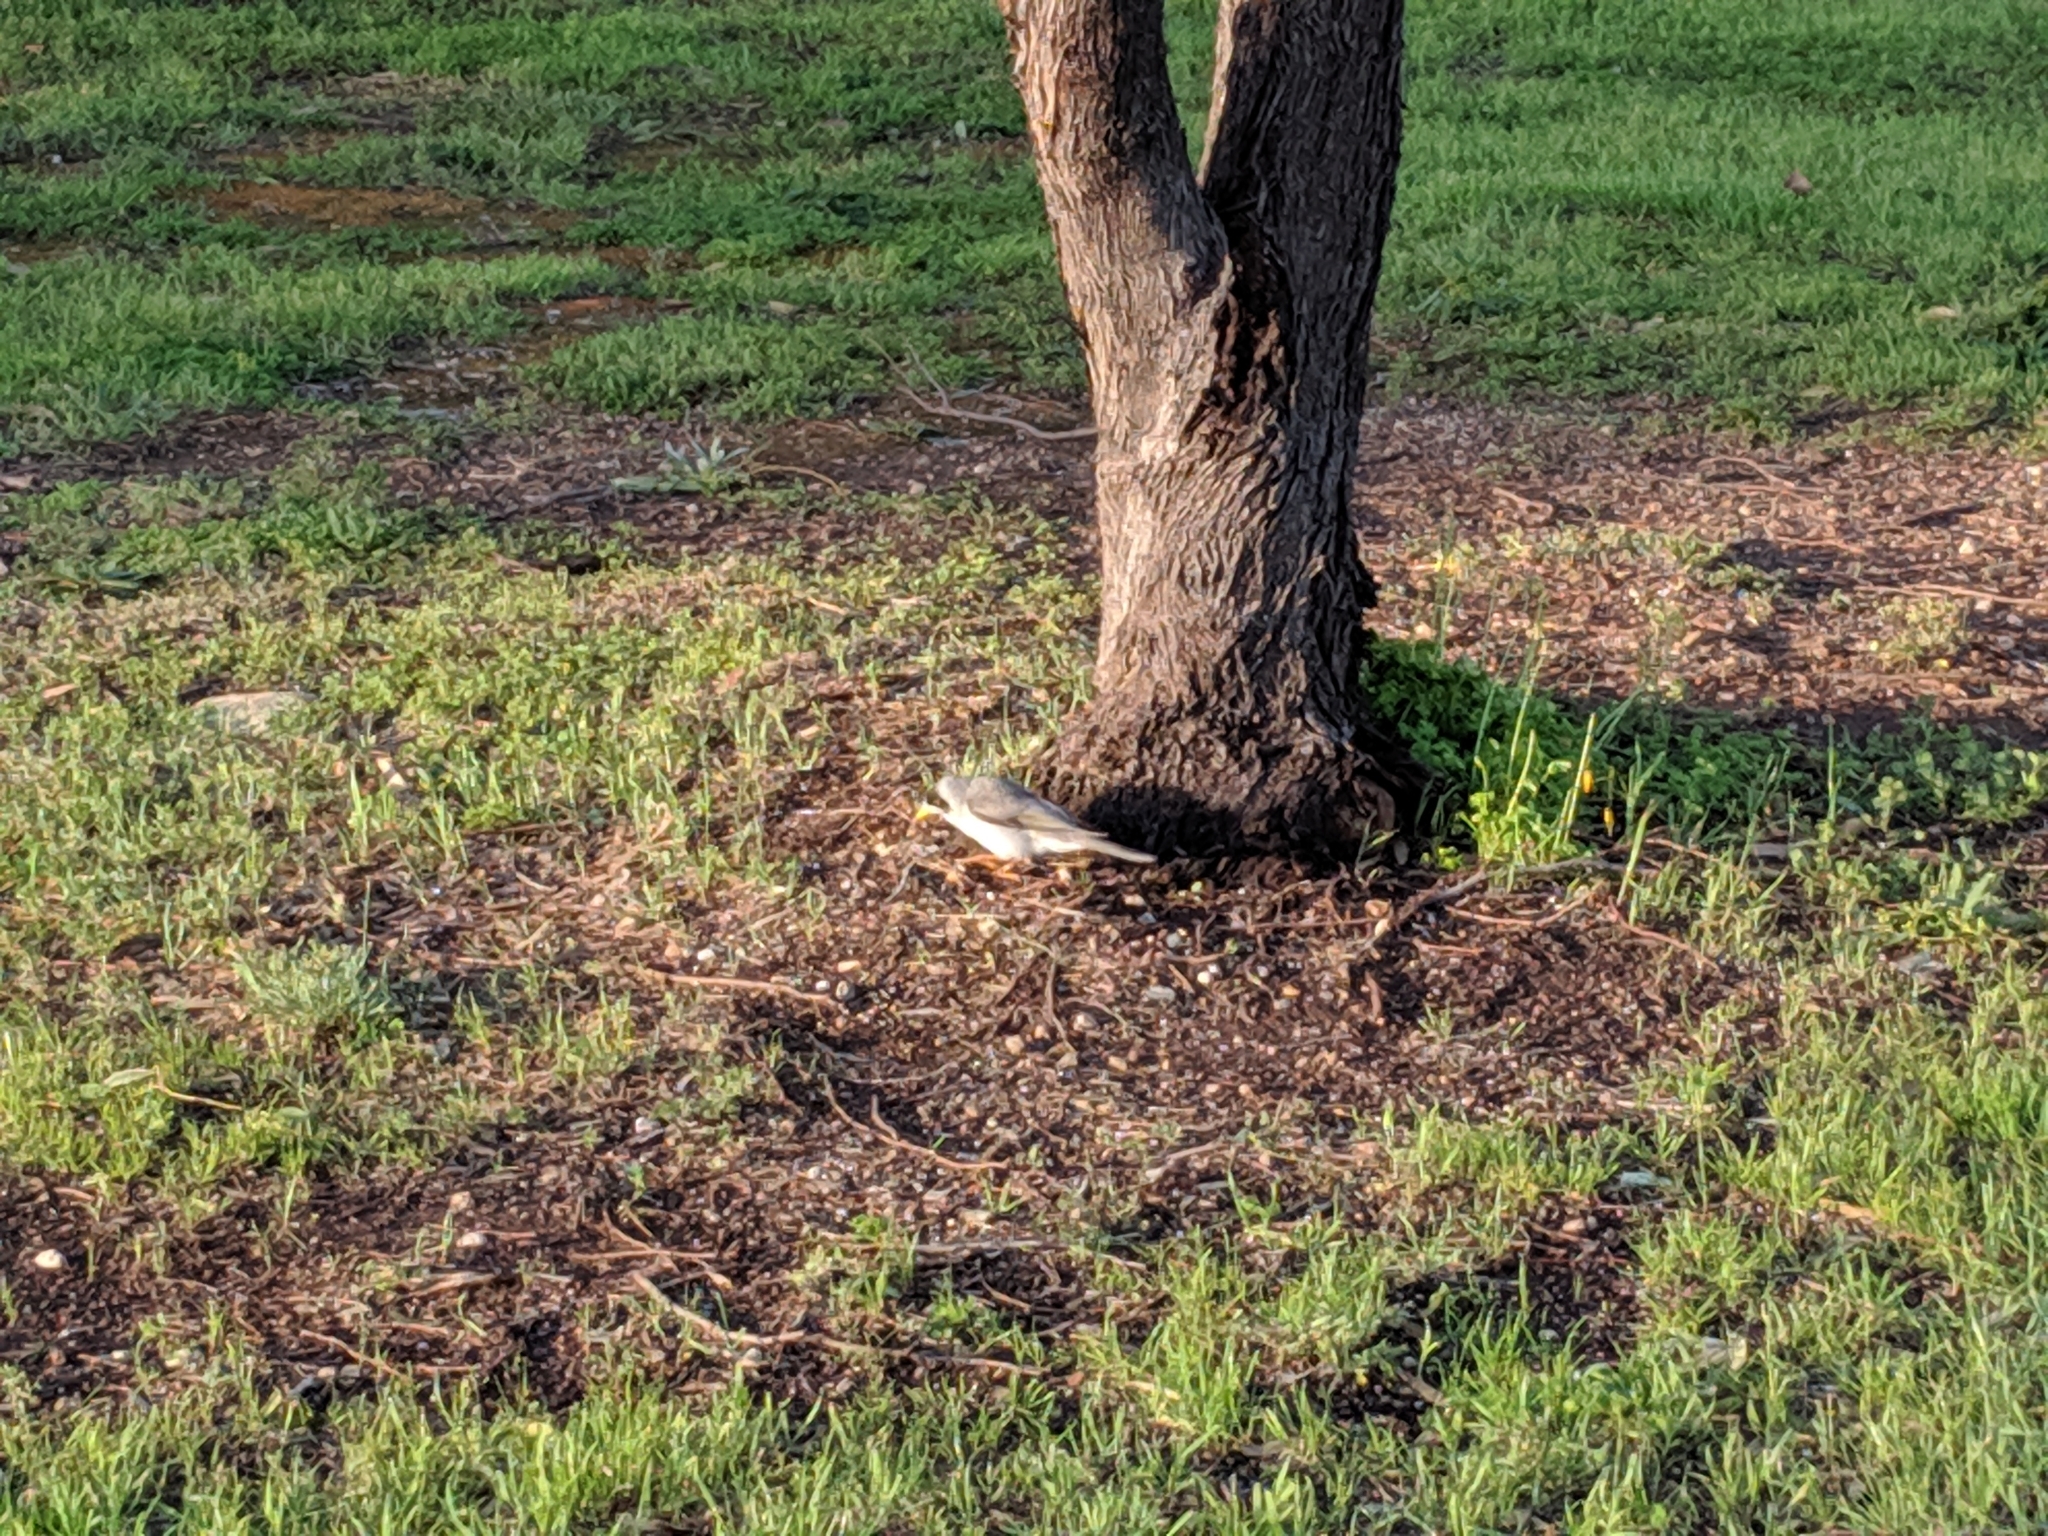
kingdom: Animalia
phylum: Chordata
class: Aves
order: Passeriformes
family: Meliphagidae
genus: Manorina
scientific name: Manorina melanocephala
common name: Noisy miner
